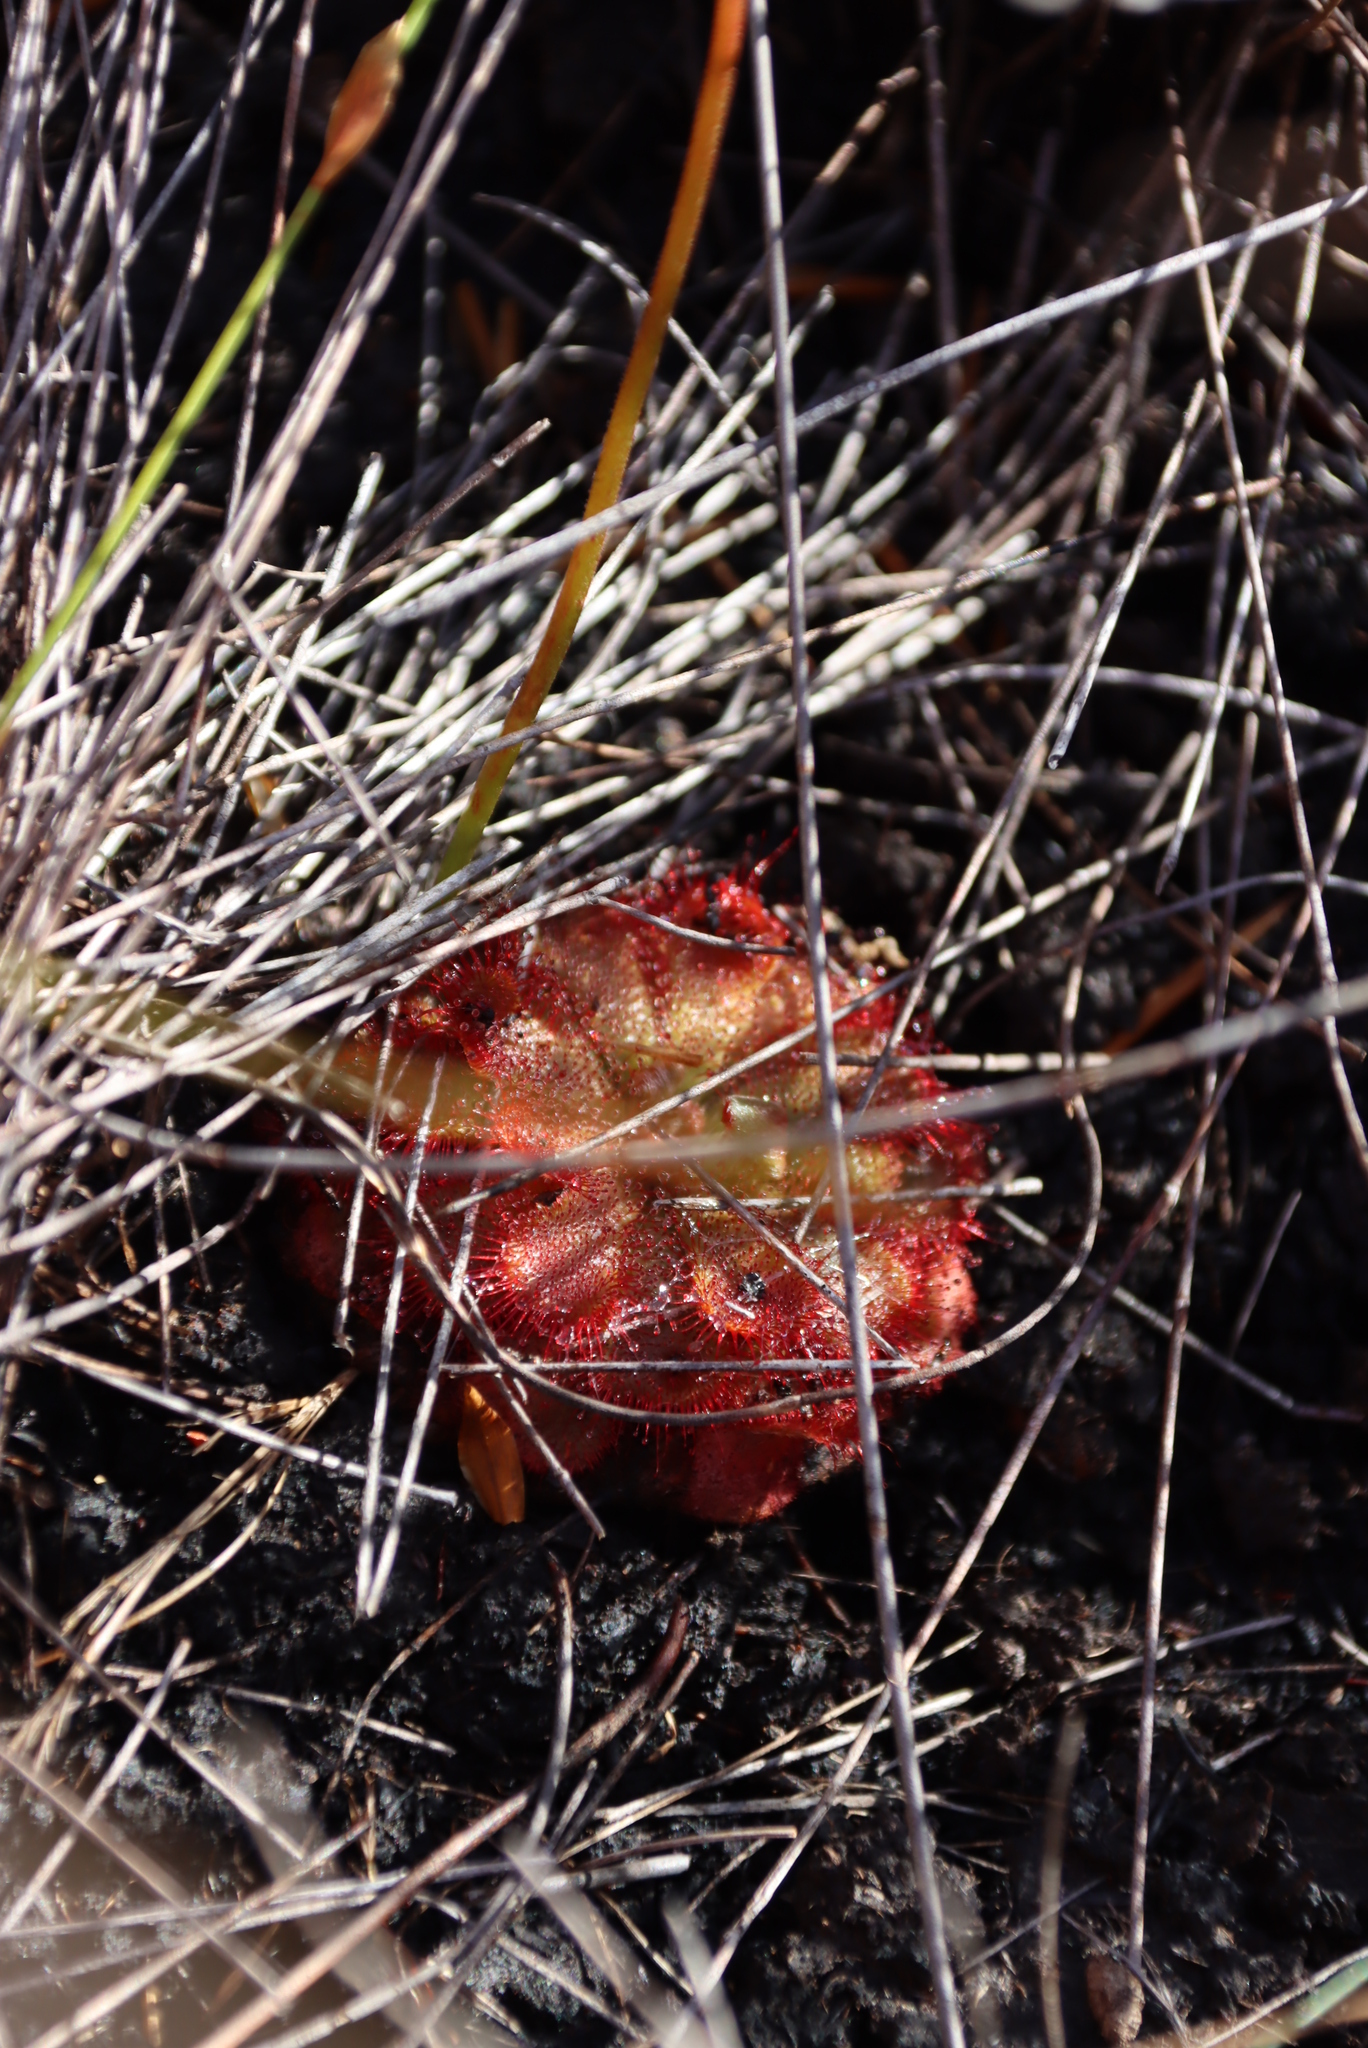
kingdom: Plantae
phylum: Tracheophyta
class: Magnoliopsida
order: Caryophyllales
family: Droseraceae
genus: Drosera
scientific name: Drosera aliciae
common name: Alice sundew
